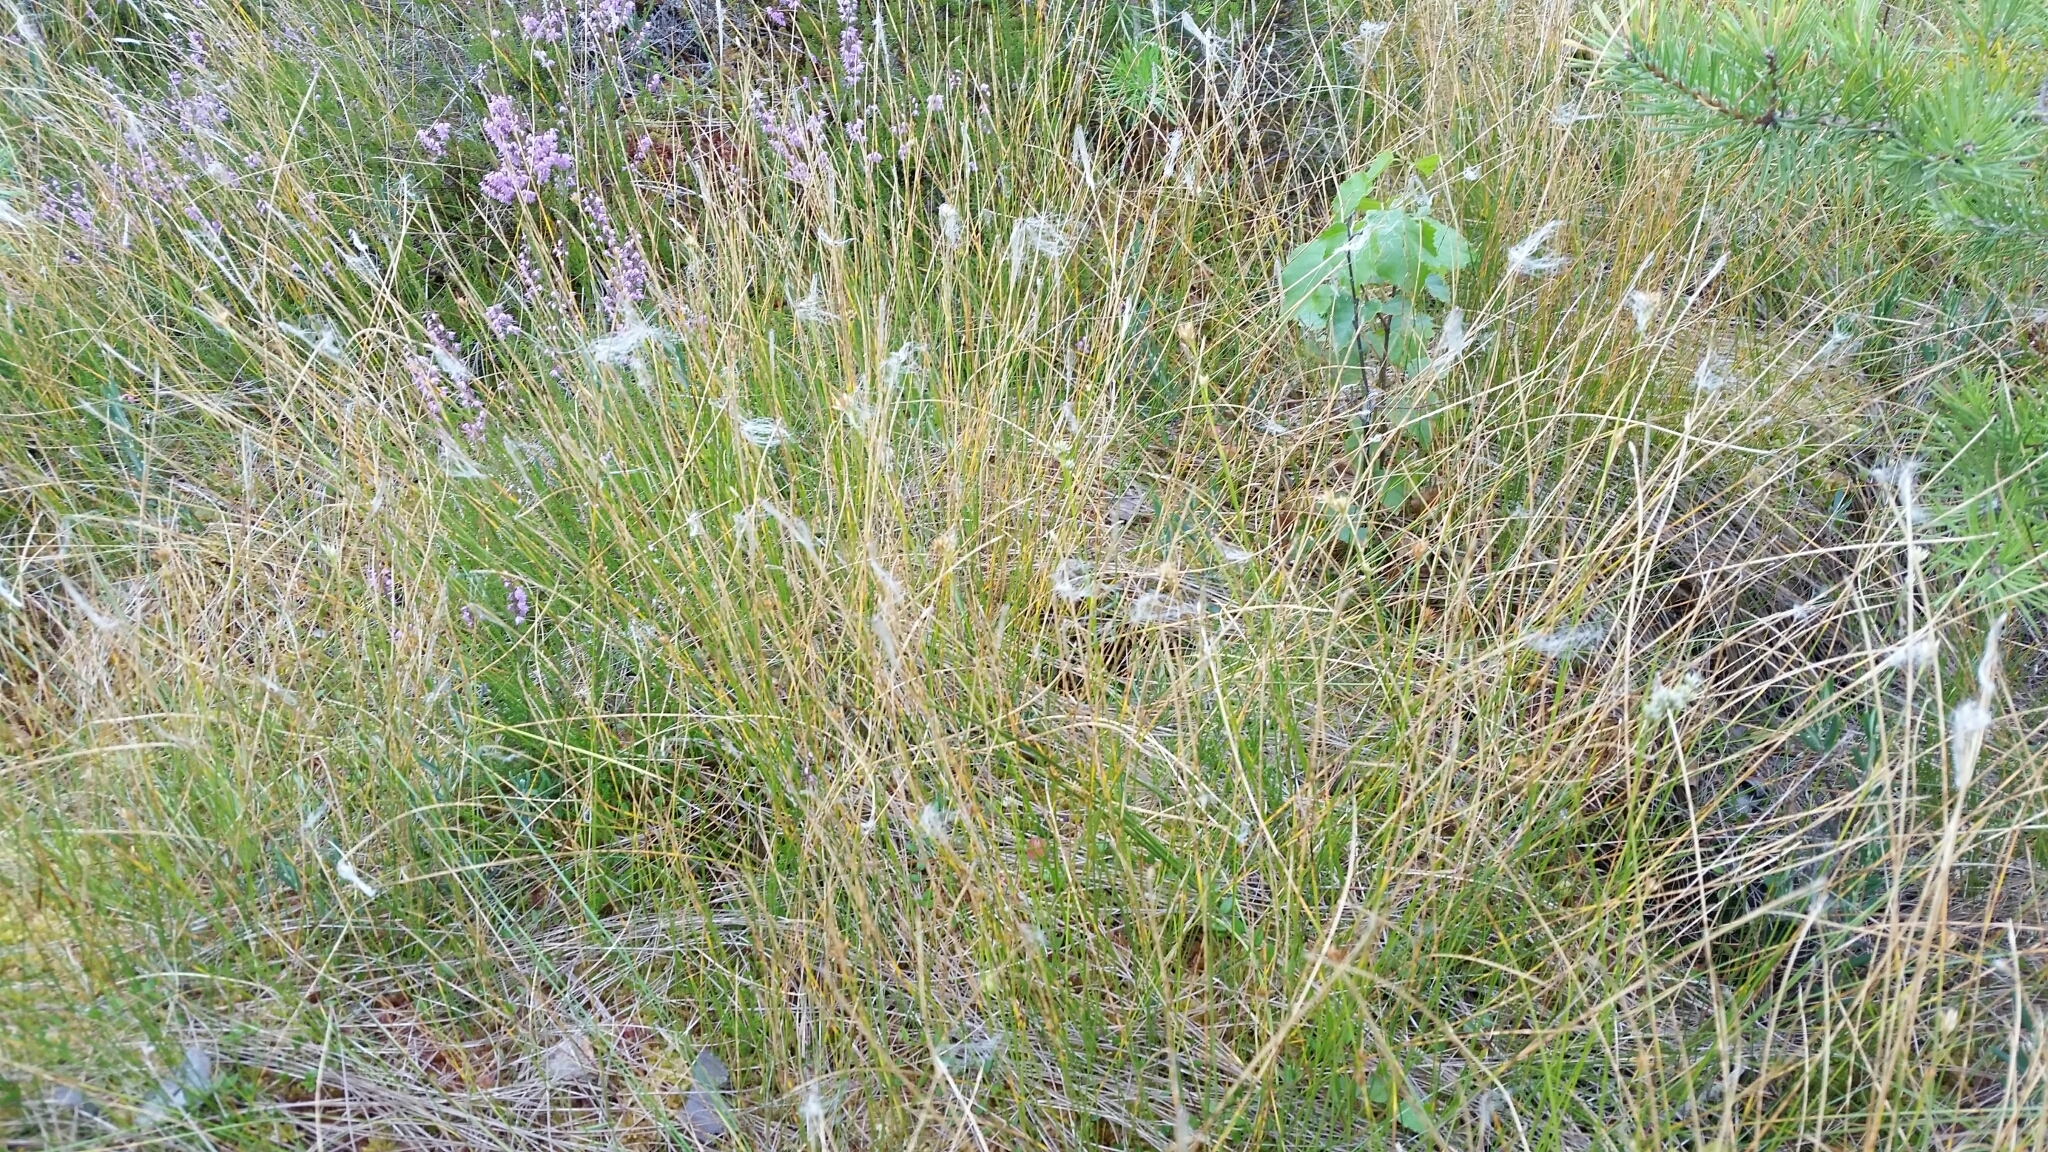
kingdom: Plantae
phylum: Tracheophyta
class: Liliopsida
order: Poales
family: Cyperaceae
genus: Trichophorum
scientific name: Trichophorum alpinum
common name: Alpine bulrush
